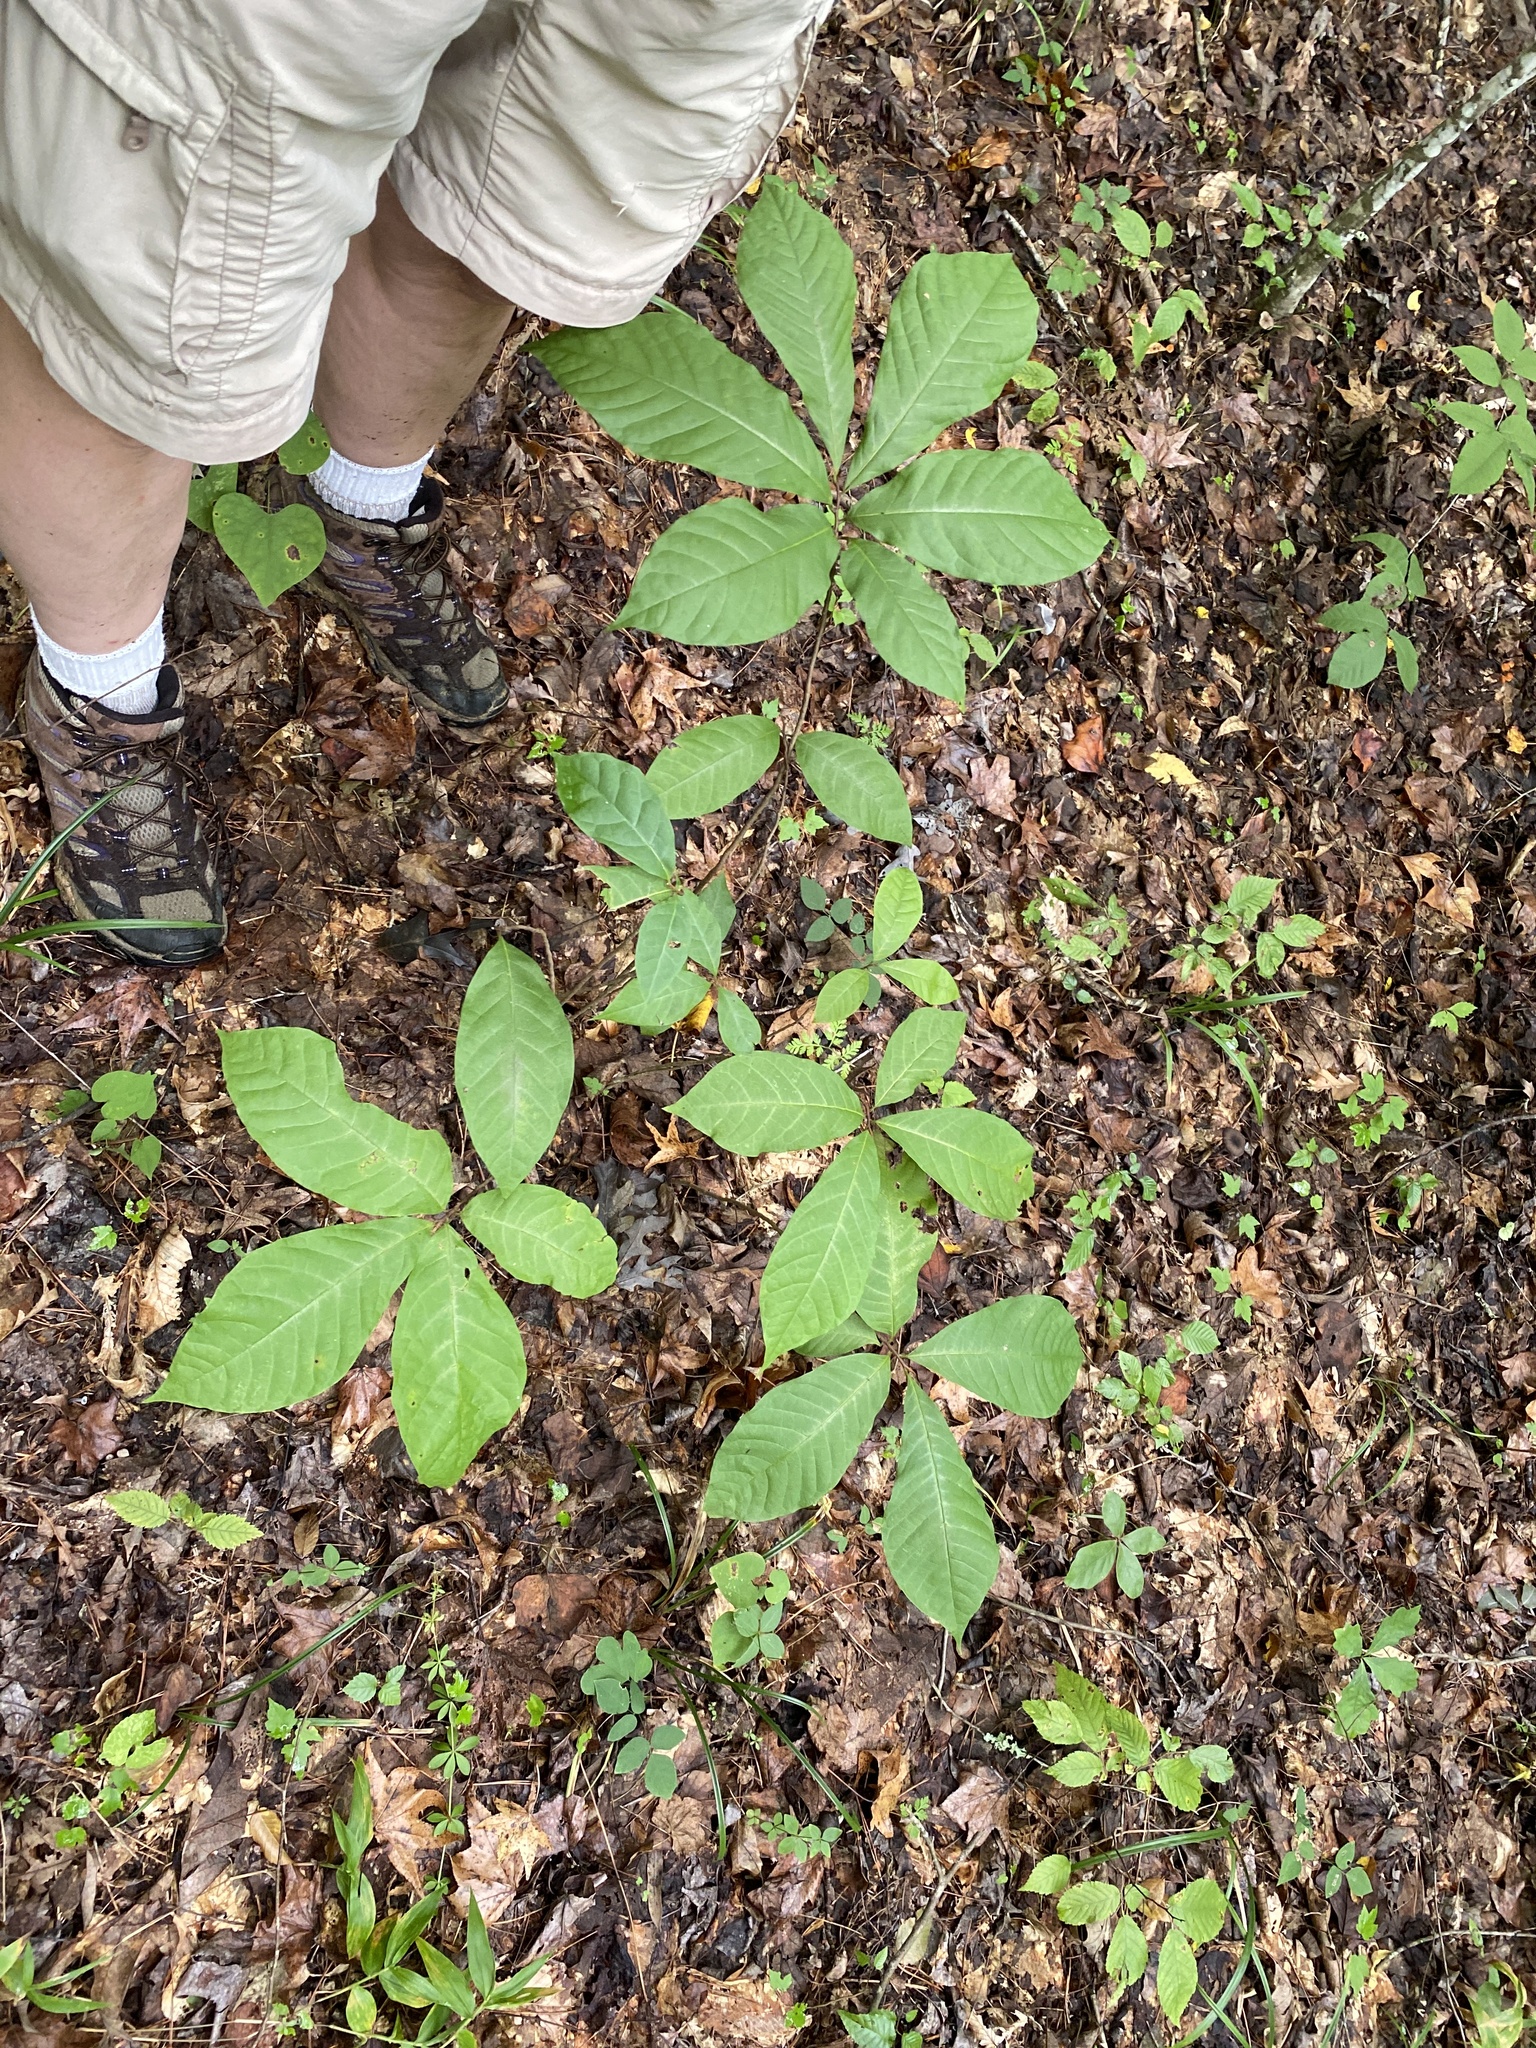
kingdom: Plantae
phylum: Tracheophyta
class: Magnoliopsida
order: Magnoliales
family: Annonaceae
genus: Asimina
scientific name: Asimina triloba
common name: Dog-banana
